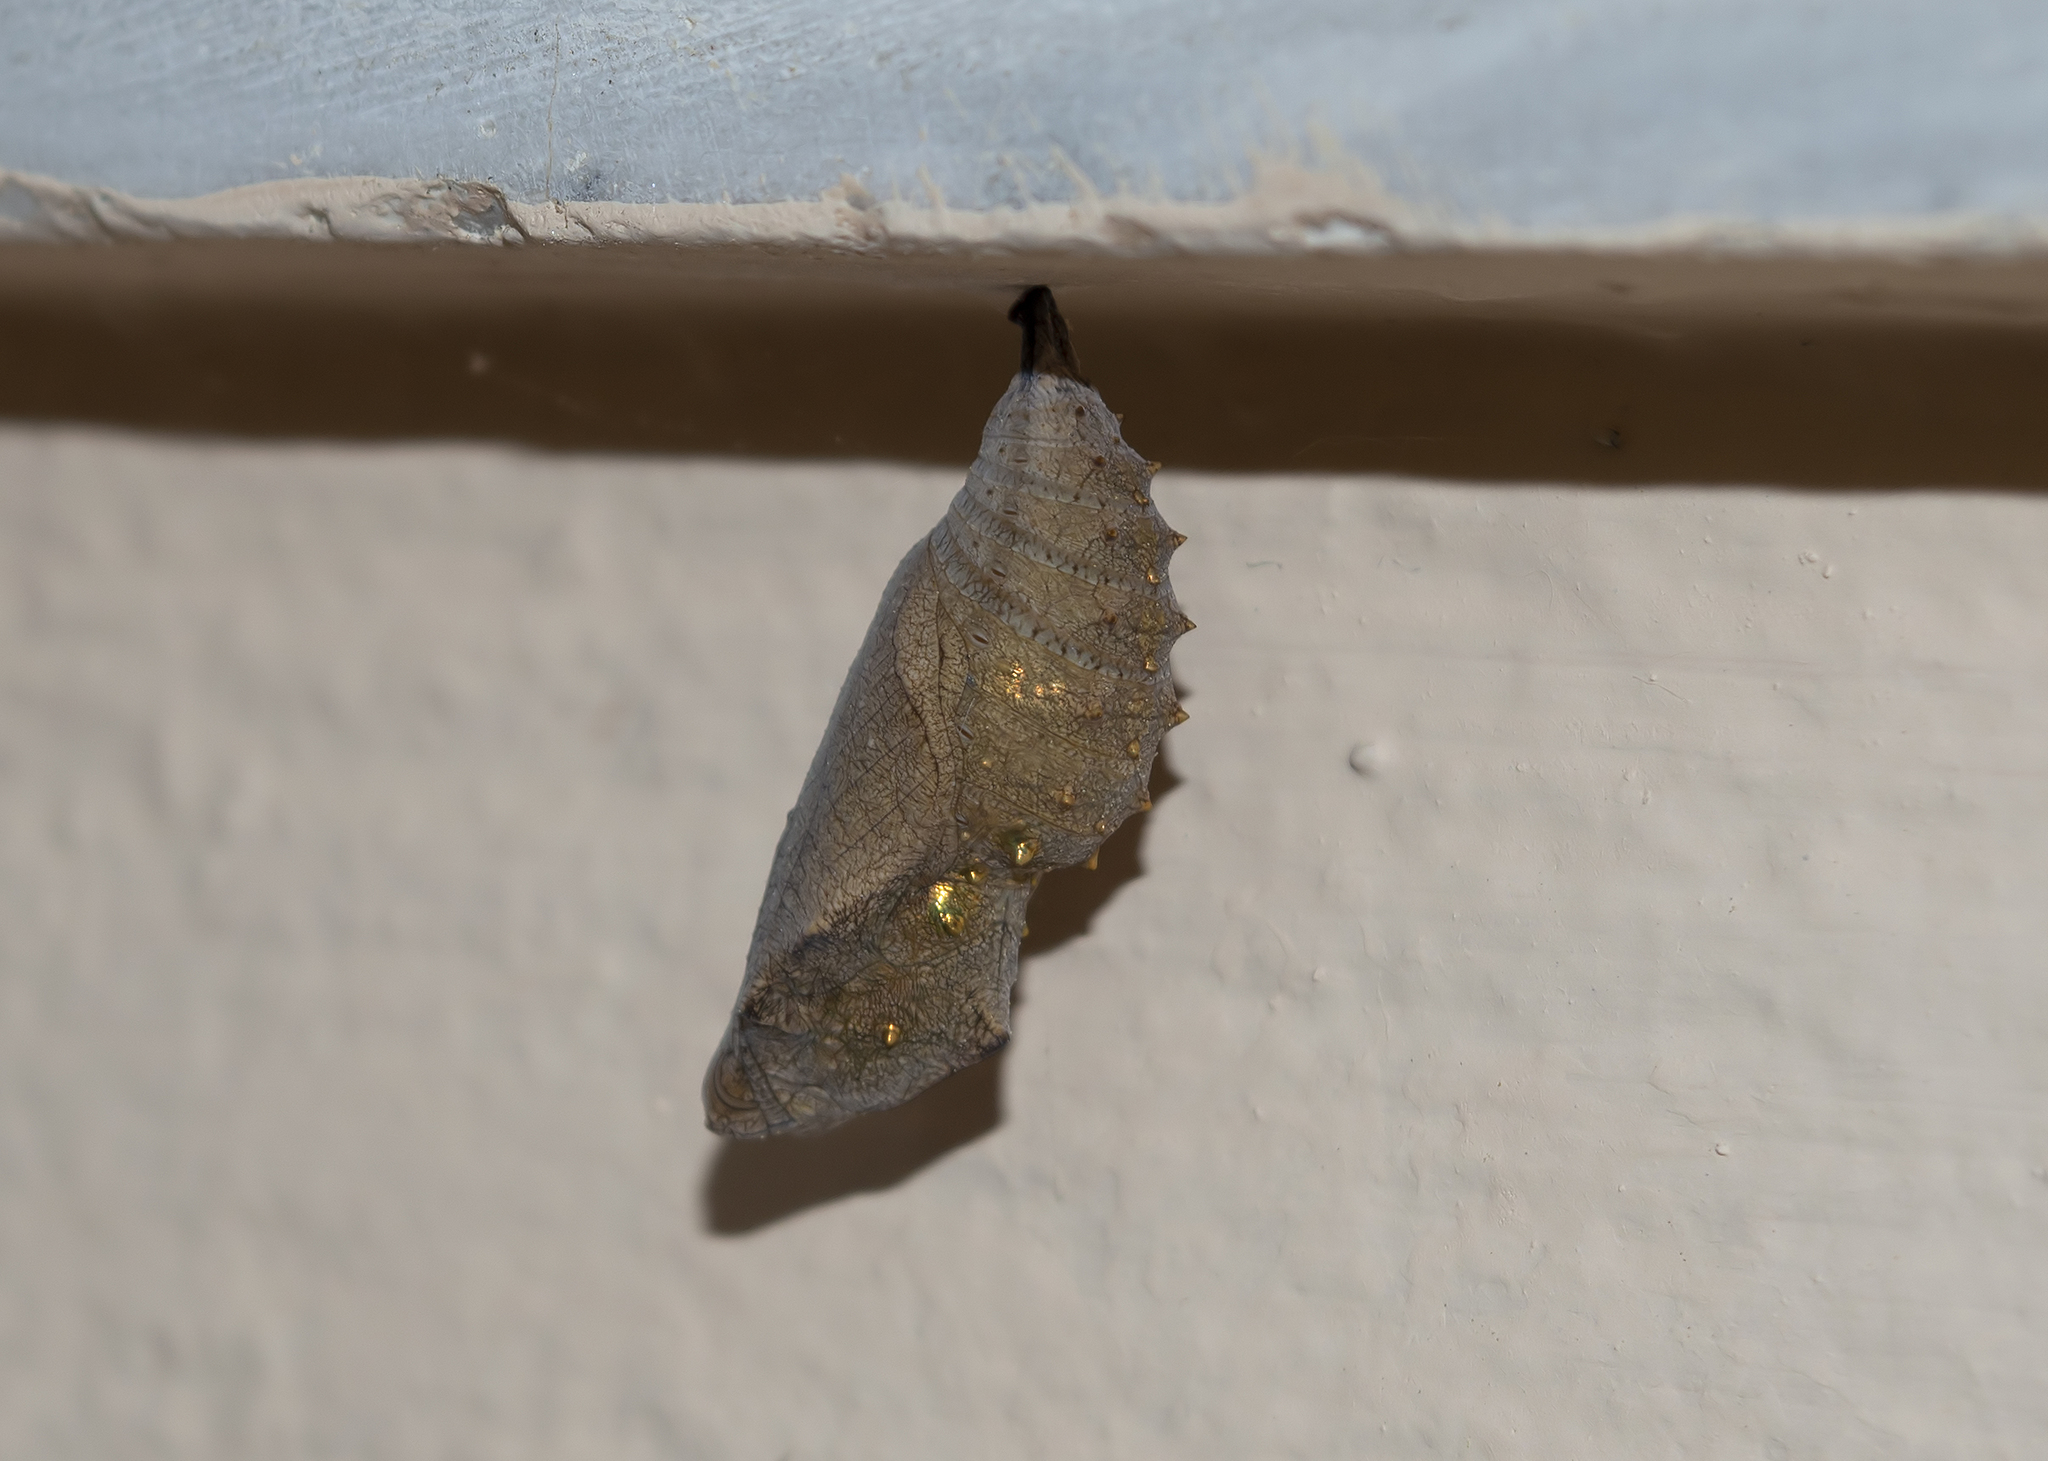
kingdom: Animalia
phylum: Arthropoda
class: Insecta
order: Lepidoptera
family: Nymphalidae
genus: Vanessa
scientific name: Vanessa atalanta
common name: Red admiral
